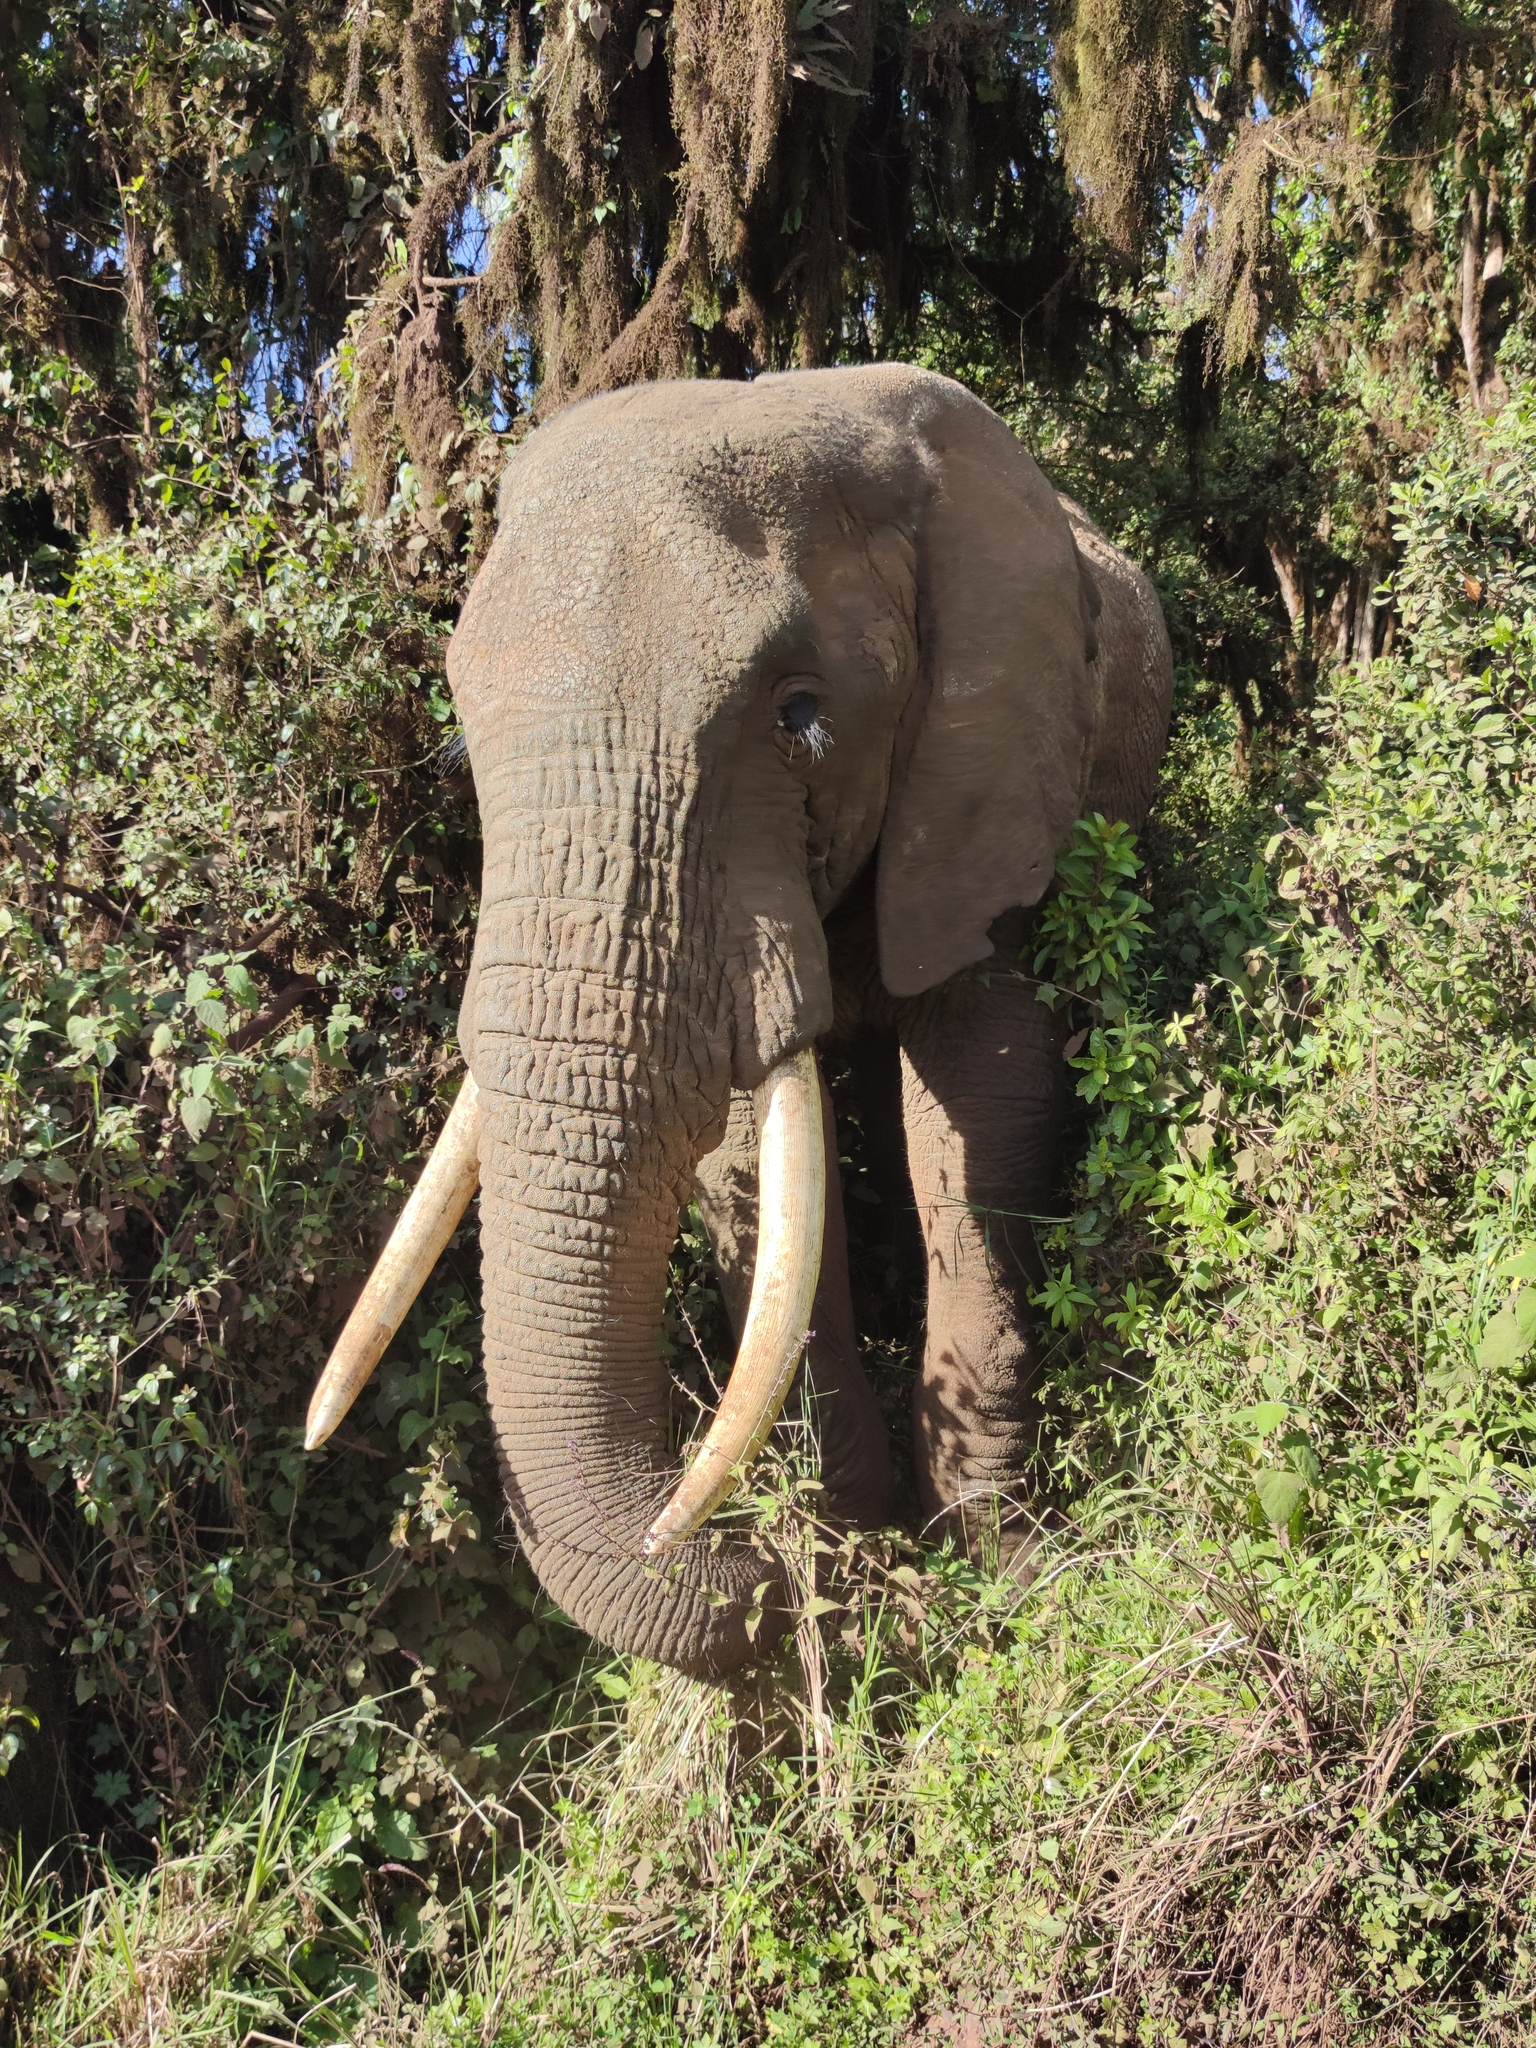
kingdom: Animalia
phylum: Chordata
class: Mammalia
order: Proboscidea
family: Elephantidae
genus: Loxodonta
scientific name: Loxodonta africana
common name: African elephant
